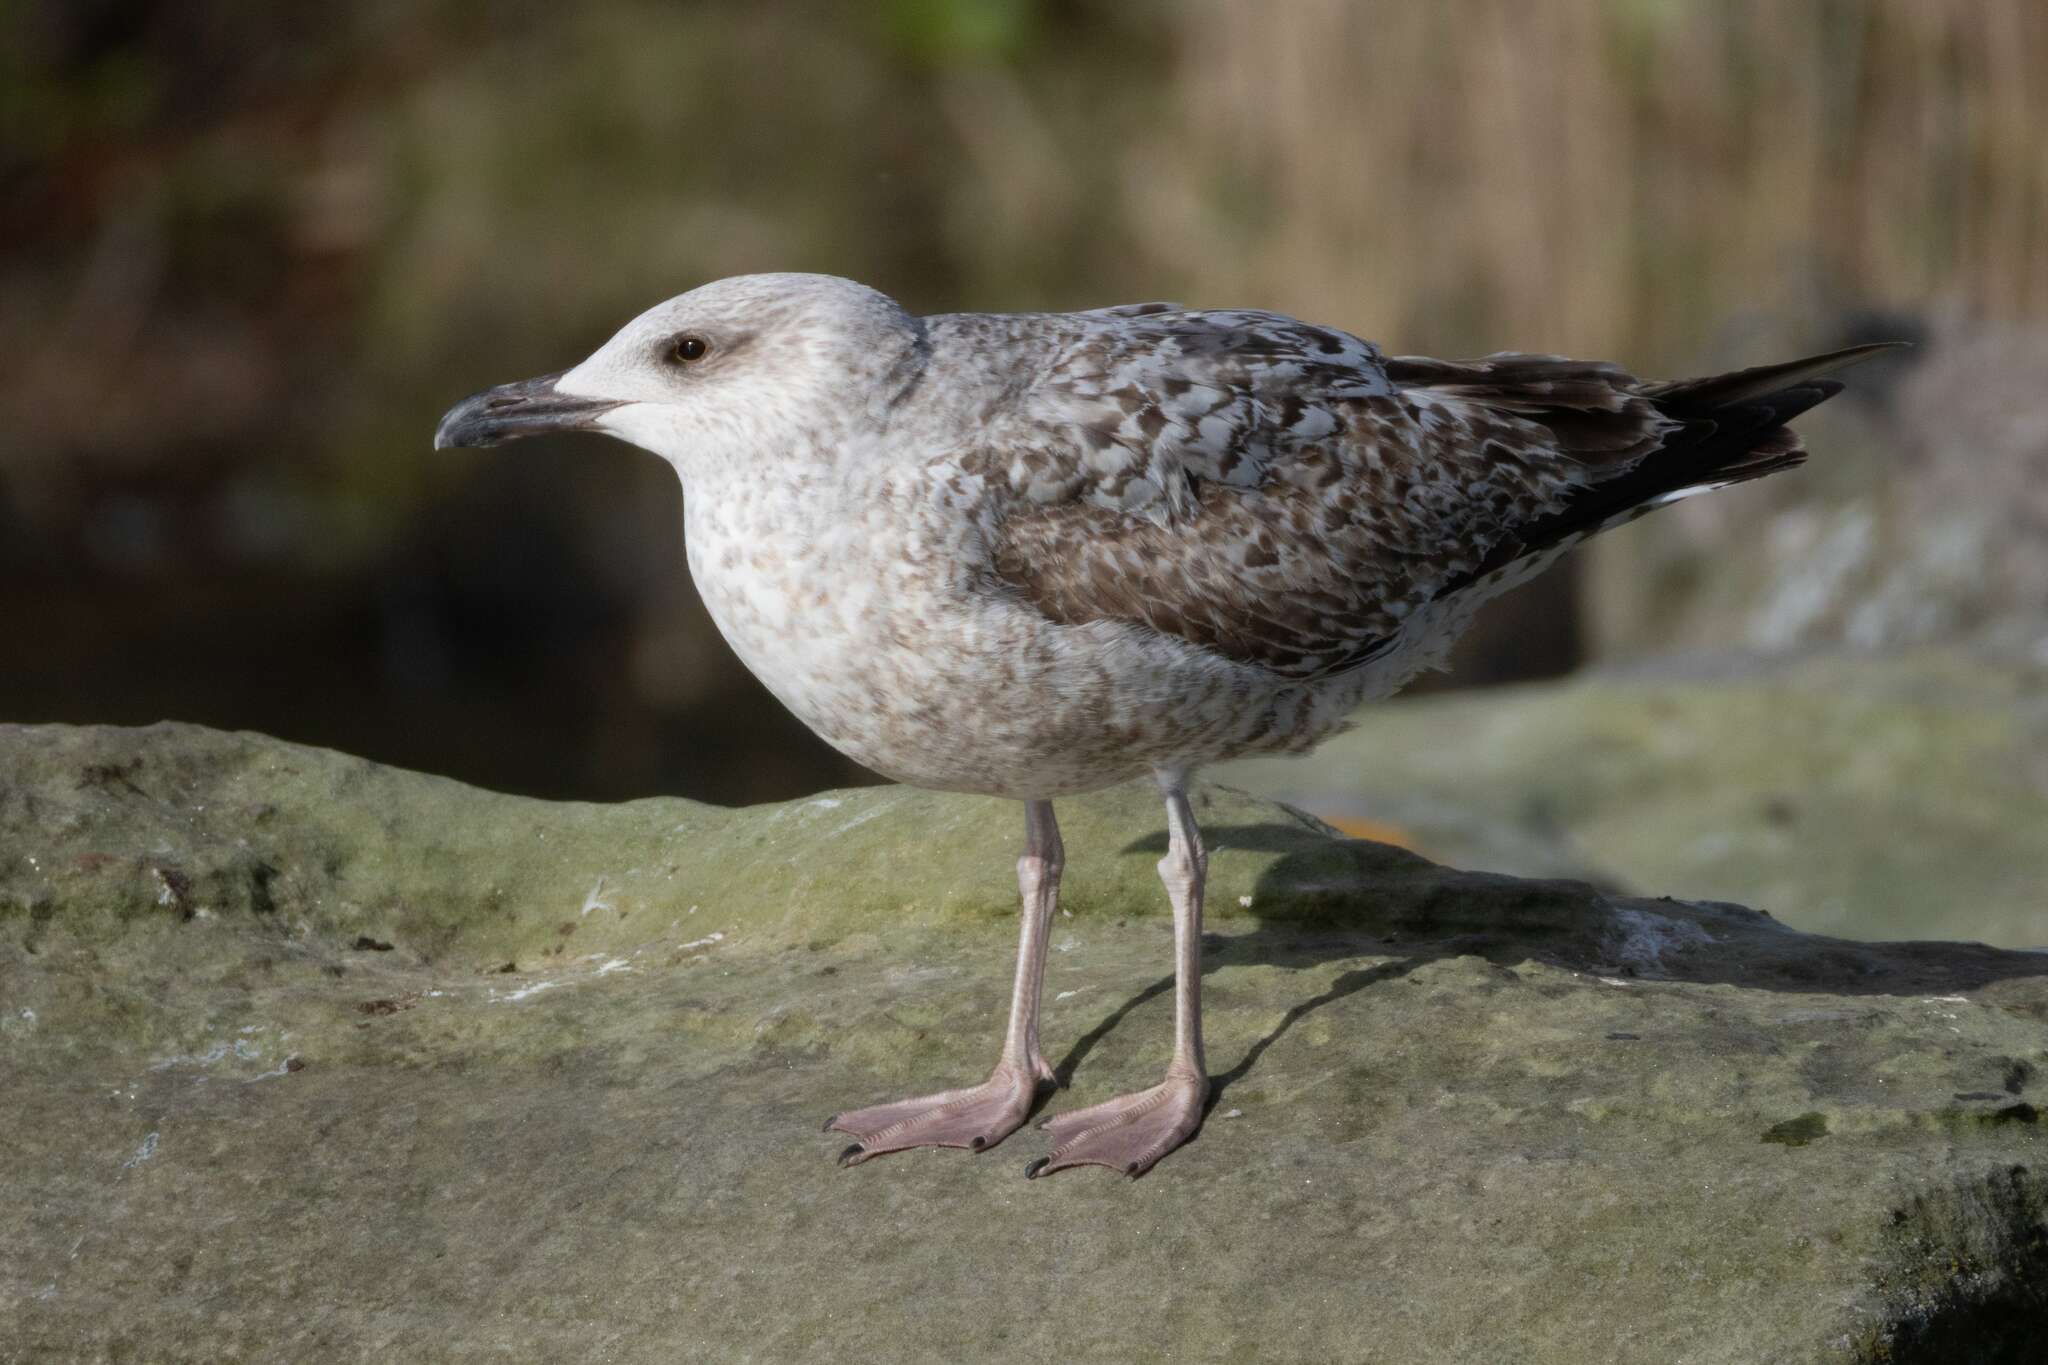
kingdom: Animalia
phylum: Chordata
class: Aves
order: Charadriiformes
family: Laridae
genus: Larus
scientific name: Larus argentatus
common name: Herring gull
